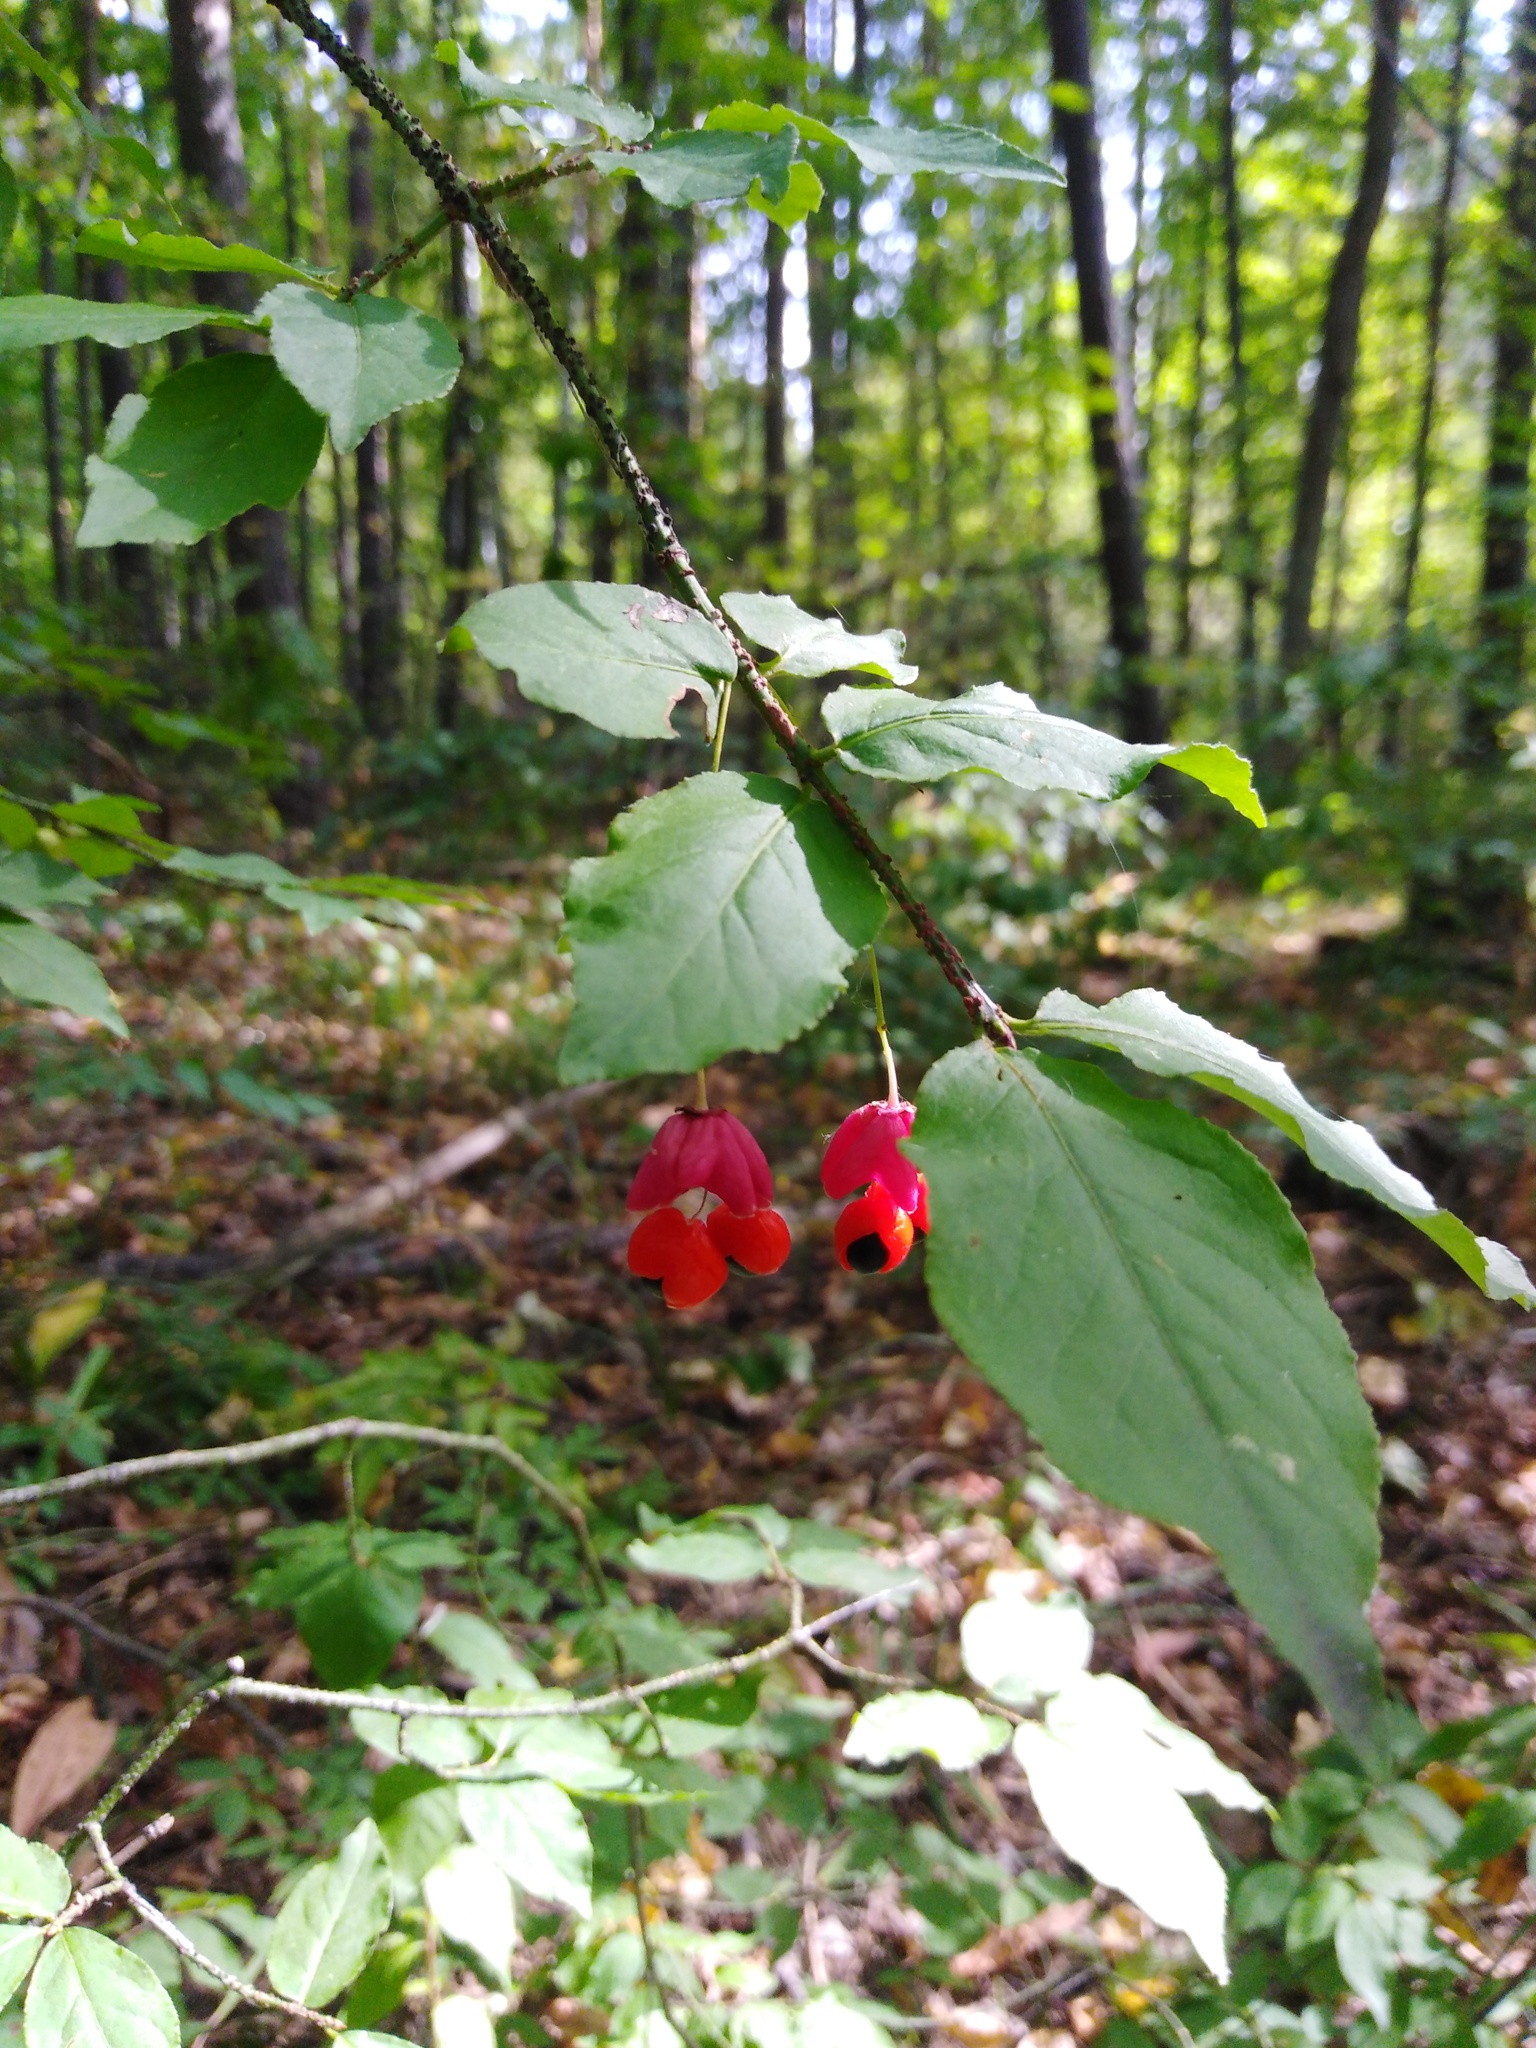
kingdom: Plantae
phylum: Tracheophyta
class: Magnoliopsida
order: Celastrales
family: Celastraceae
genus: Euonymus
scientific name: Euonymus verrucosus
